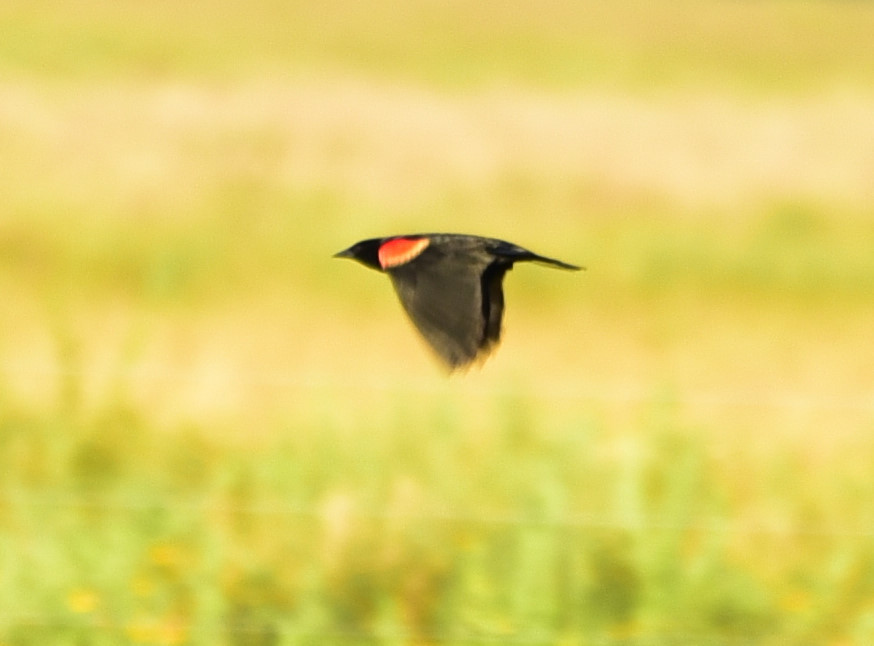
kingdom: Animalia
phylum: Chordata
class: Aves
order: Passeriformes
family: Icteridae
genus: Agelaius
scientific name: Agelaius phoeniceus
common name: Red-winged blackbird
